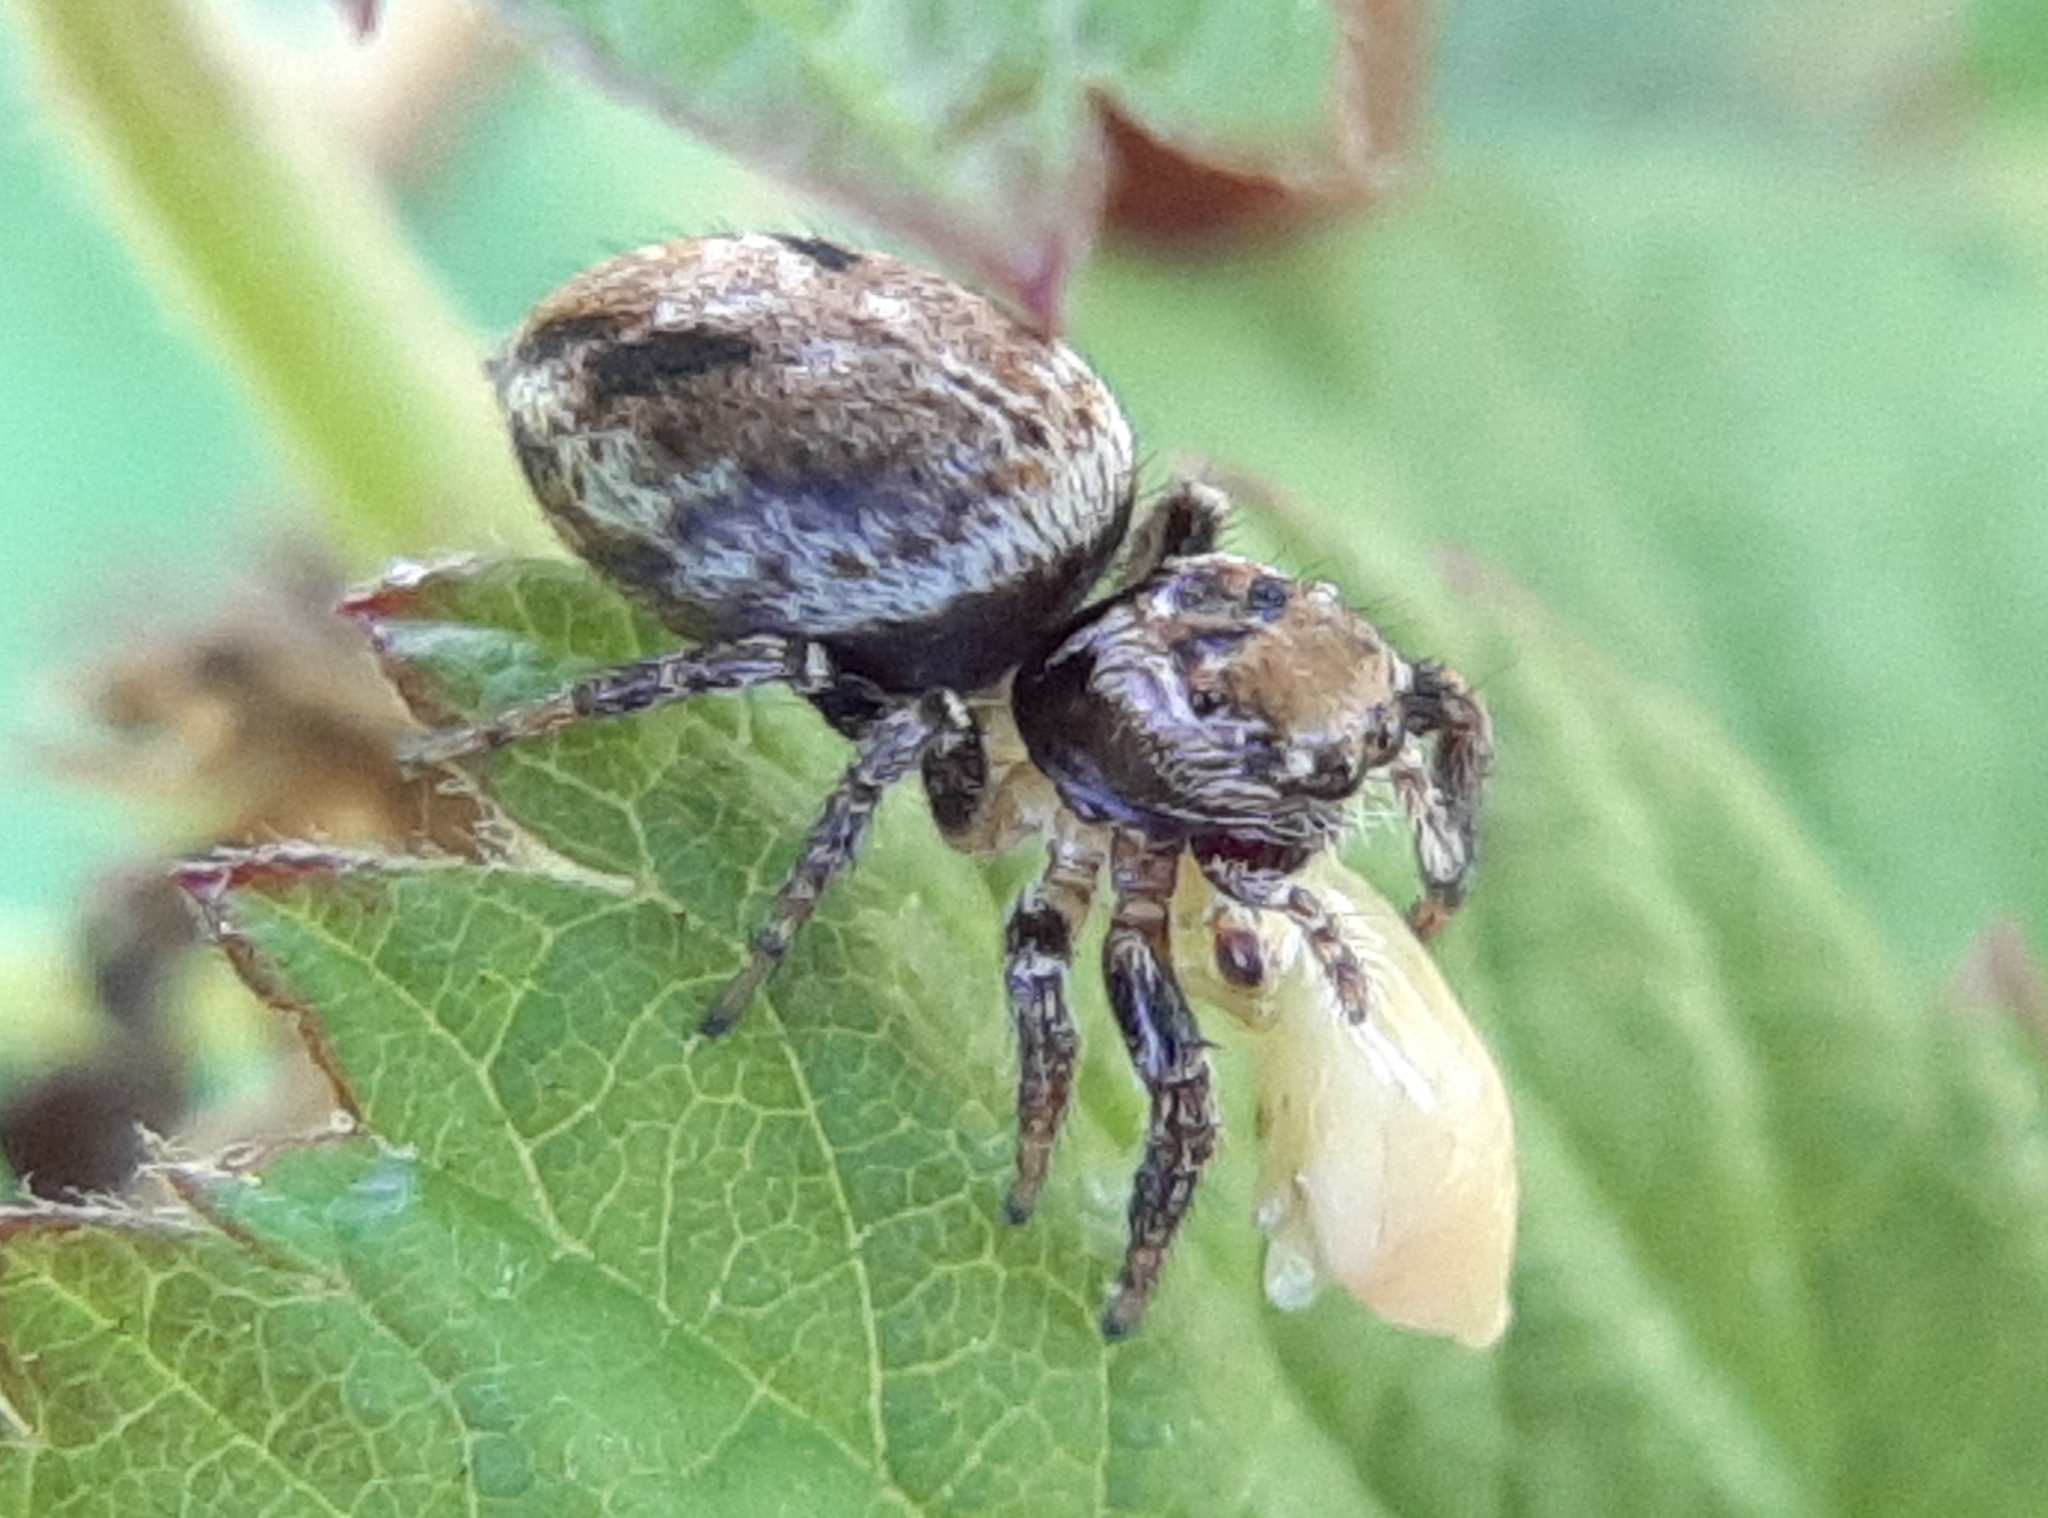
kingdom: Animalia
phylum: Arthropoda
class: Arachnida
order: Araneae
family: Salticidae
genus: Evarcha
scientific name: Evarcha hoyi
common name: Hoy's jumping spider
